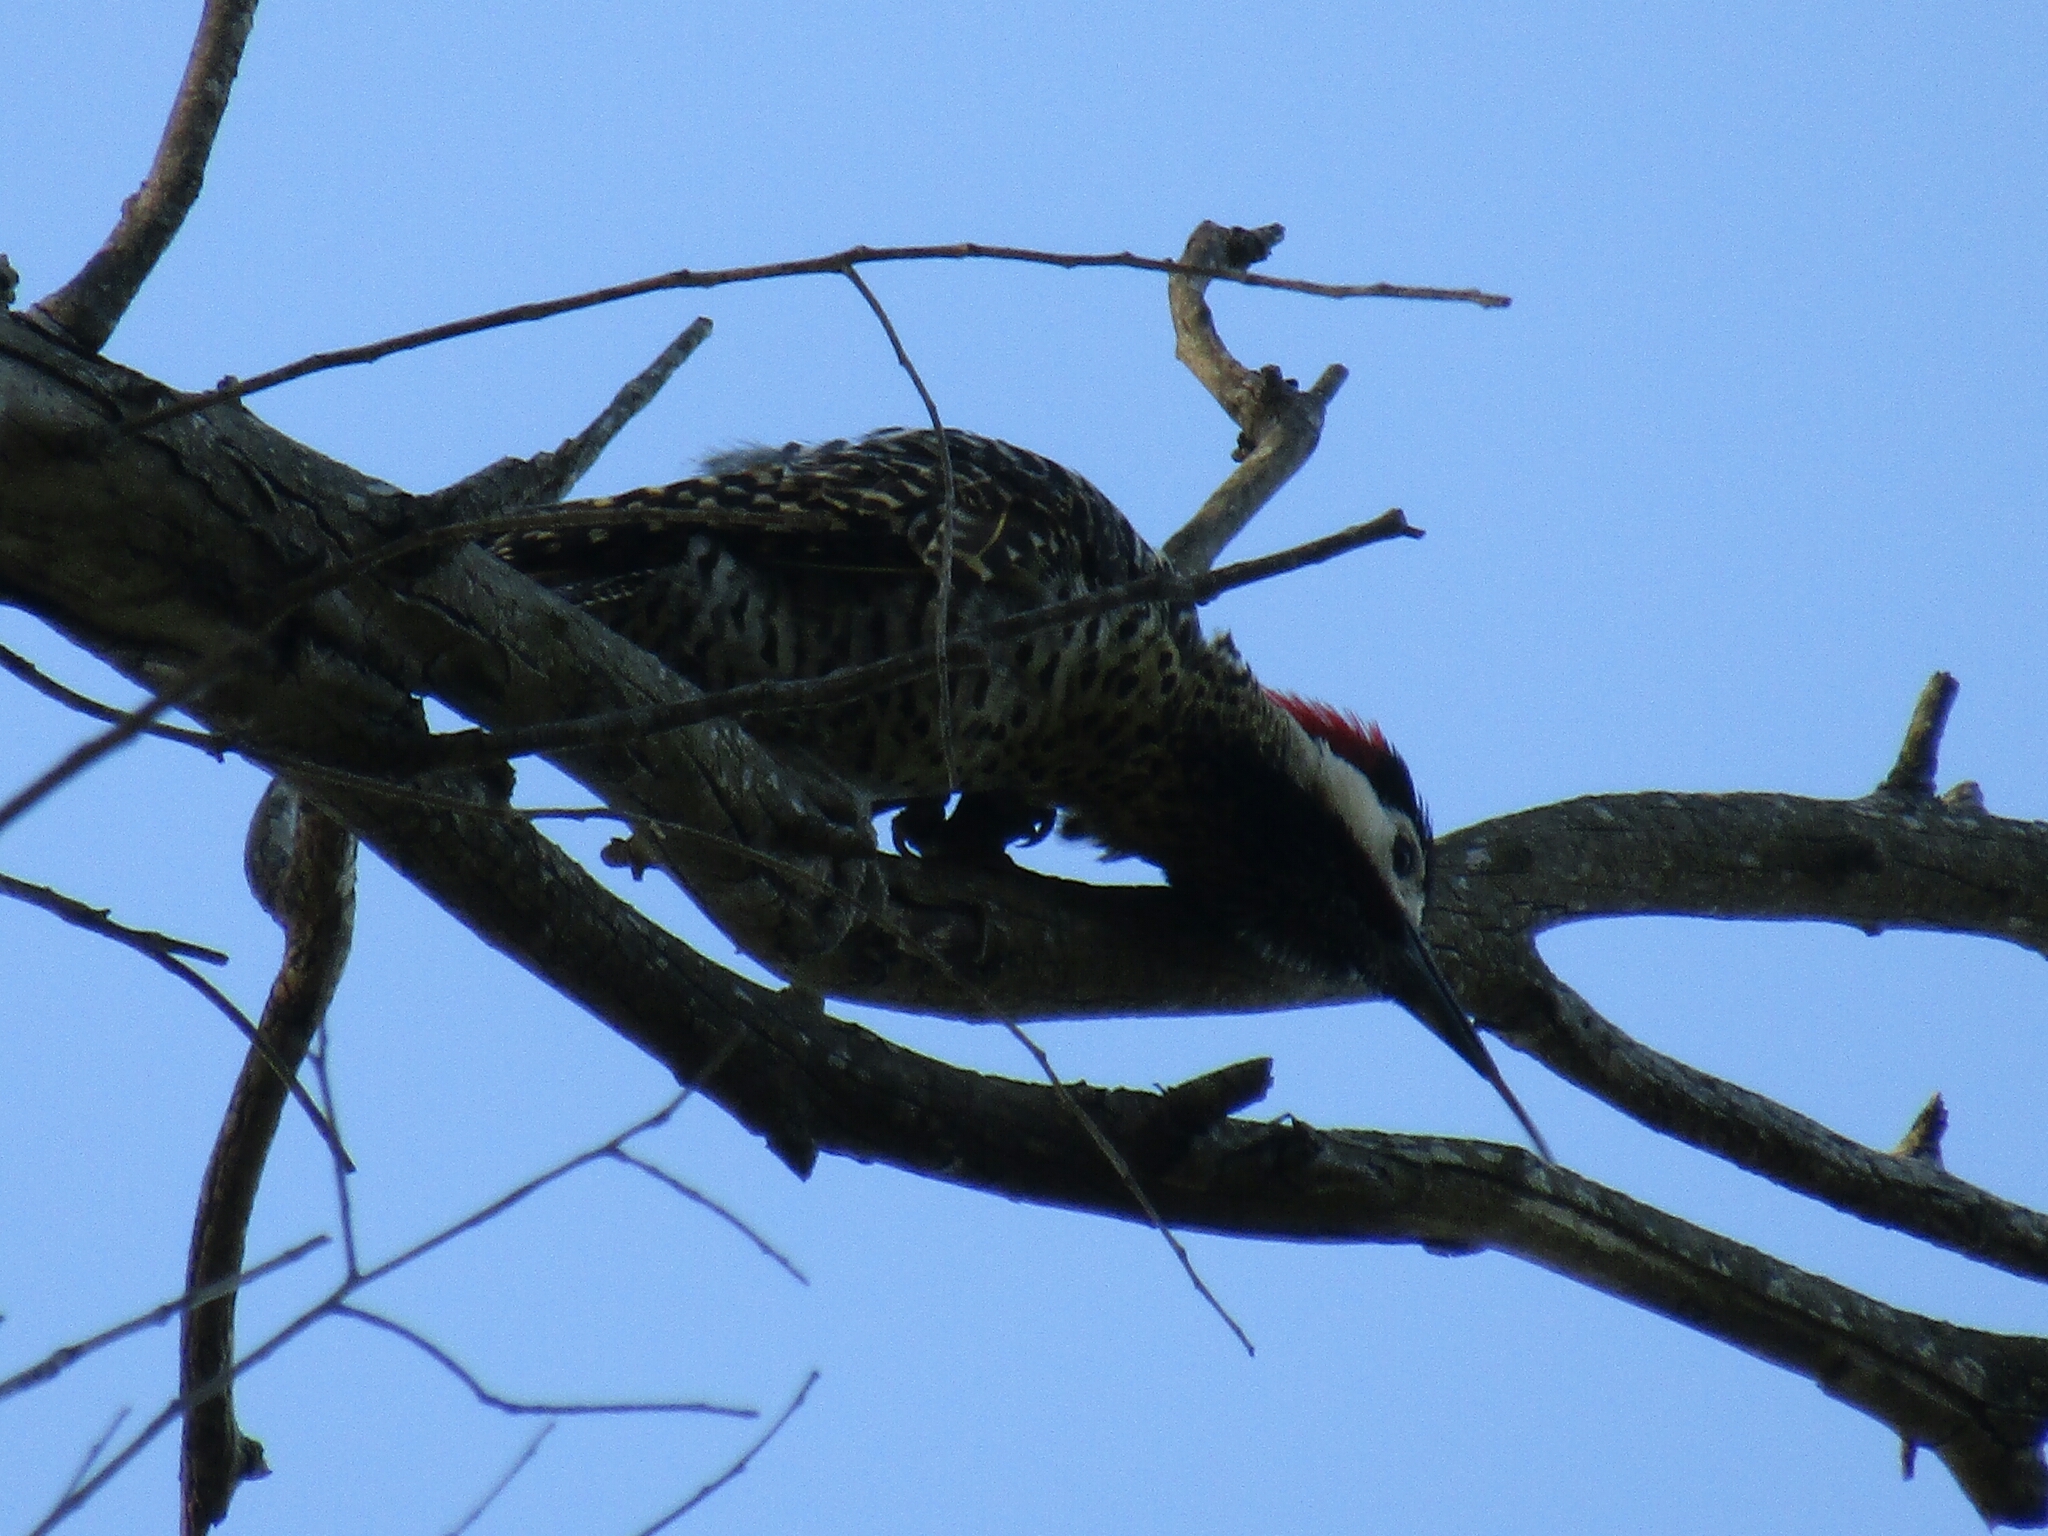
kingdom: Animalia
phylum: Chordata
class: Aves
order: Piciformes
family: Picidae
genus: Colaptes
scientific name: Colaptes melanochloros
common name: Green-barred woodpecker
